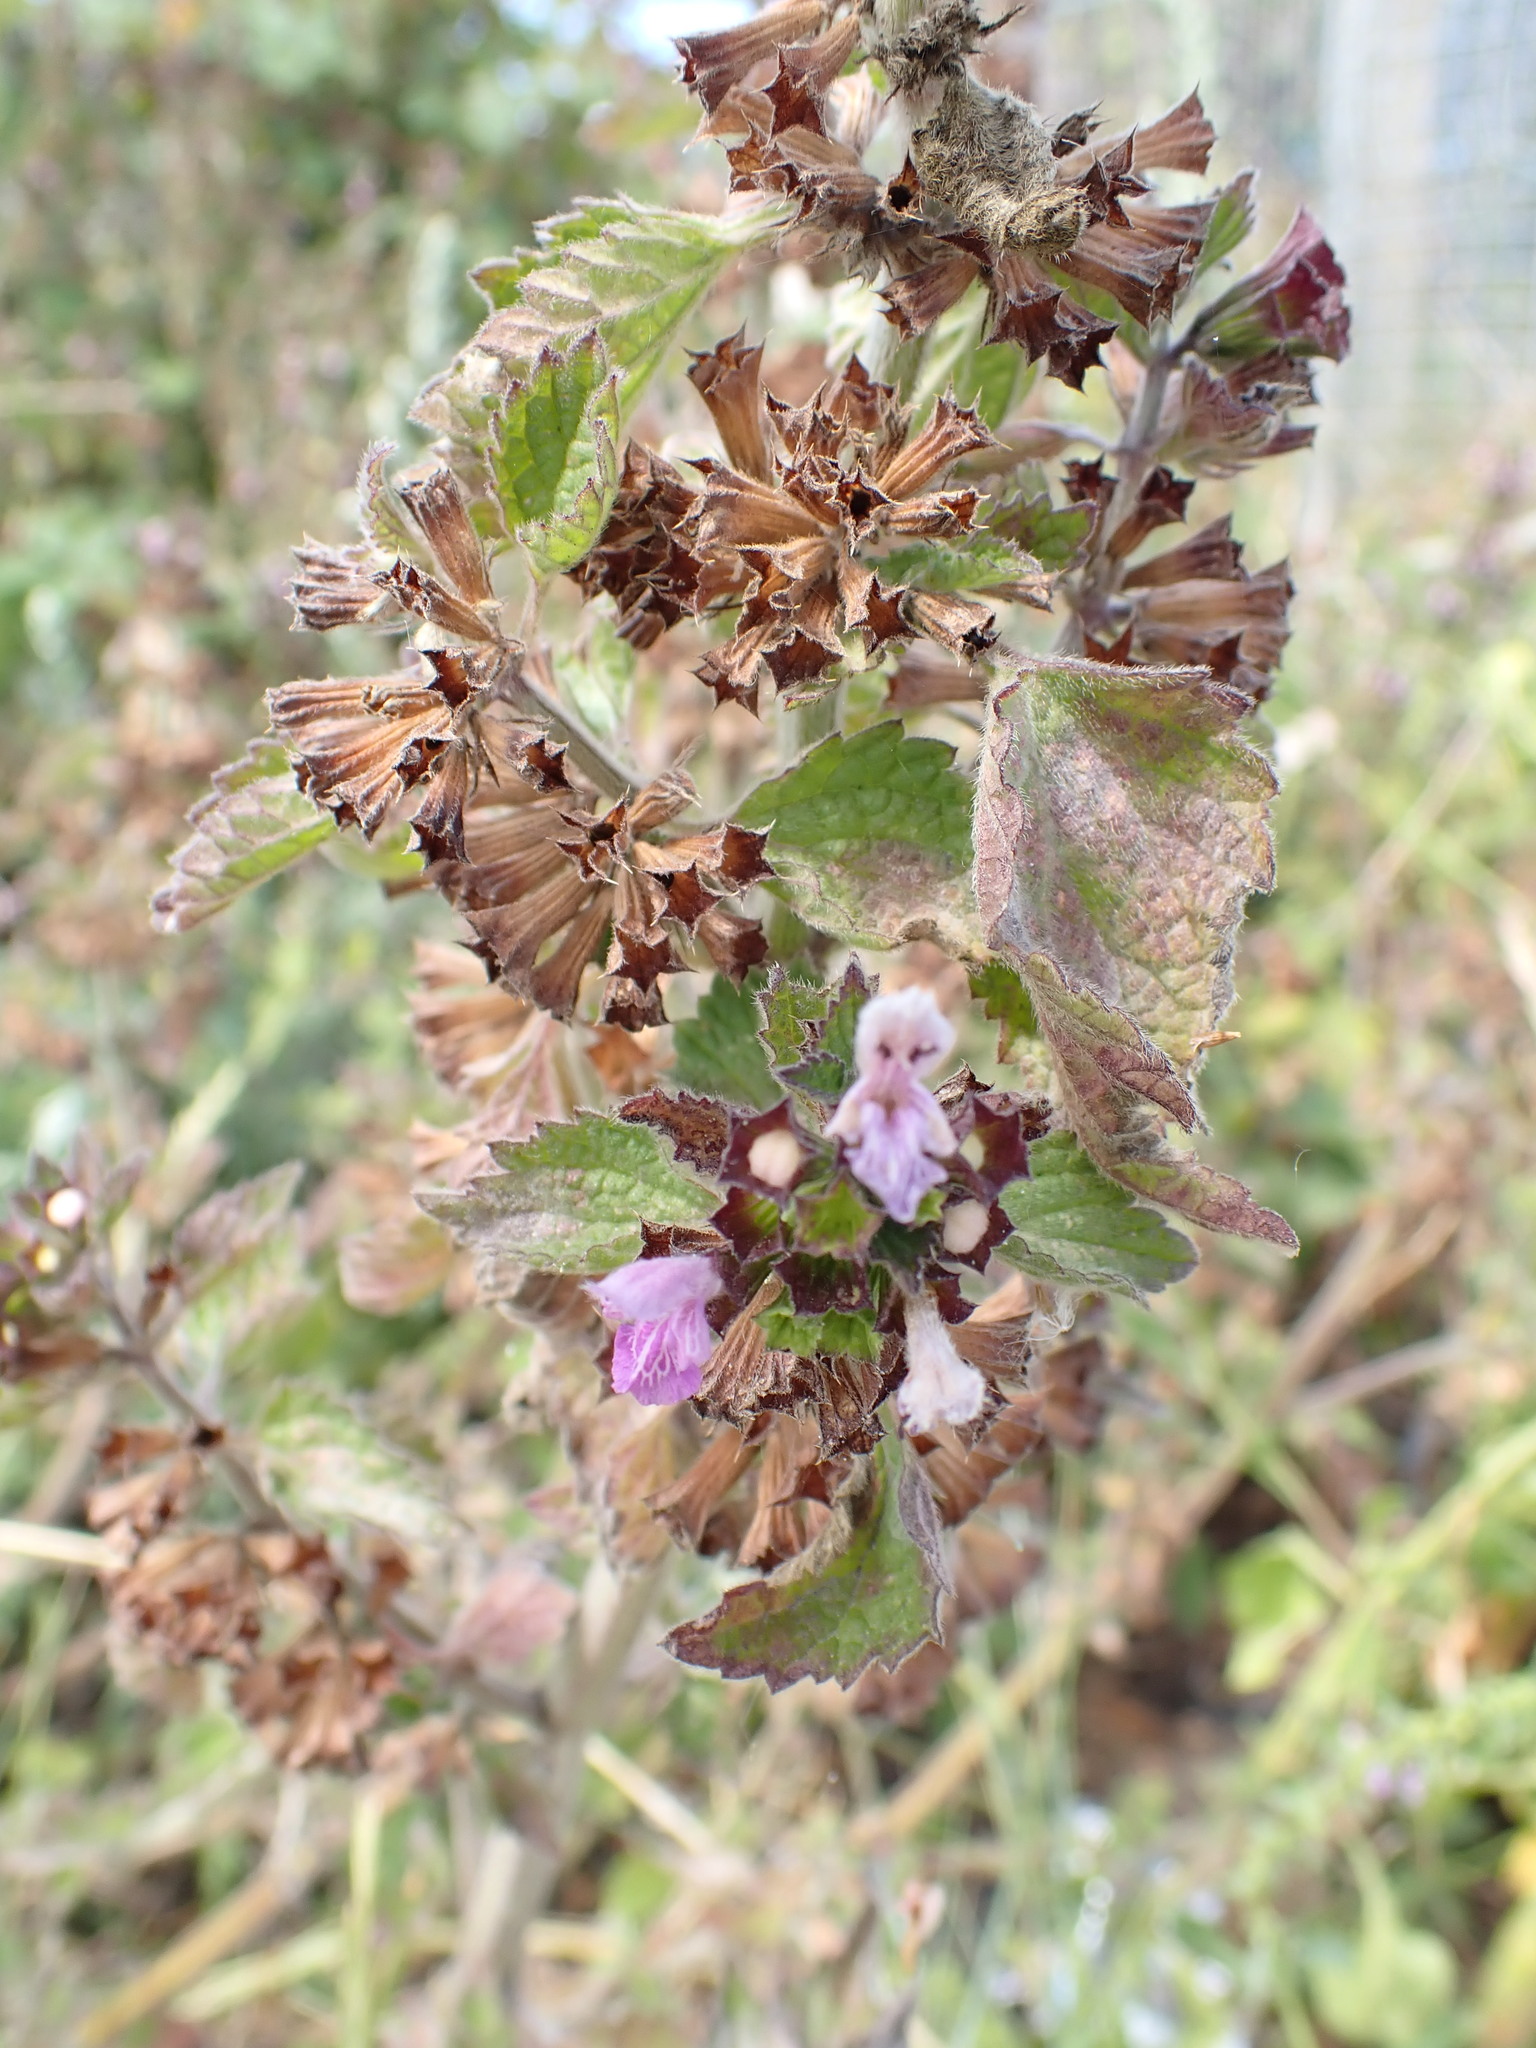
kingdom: Plantae
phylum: Tracheophyta
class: Magnoliopsida
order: Lamiales
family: Lamiaceae
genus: Ballota
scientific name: Ballota nigra
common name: Black horehound
